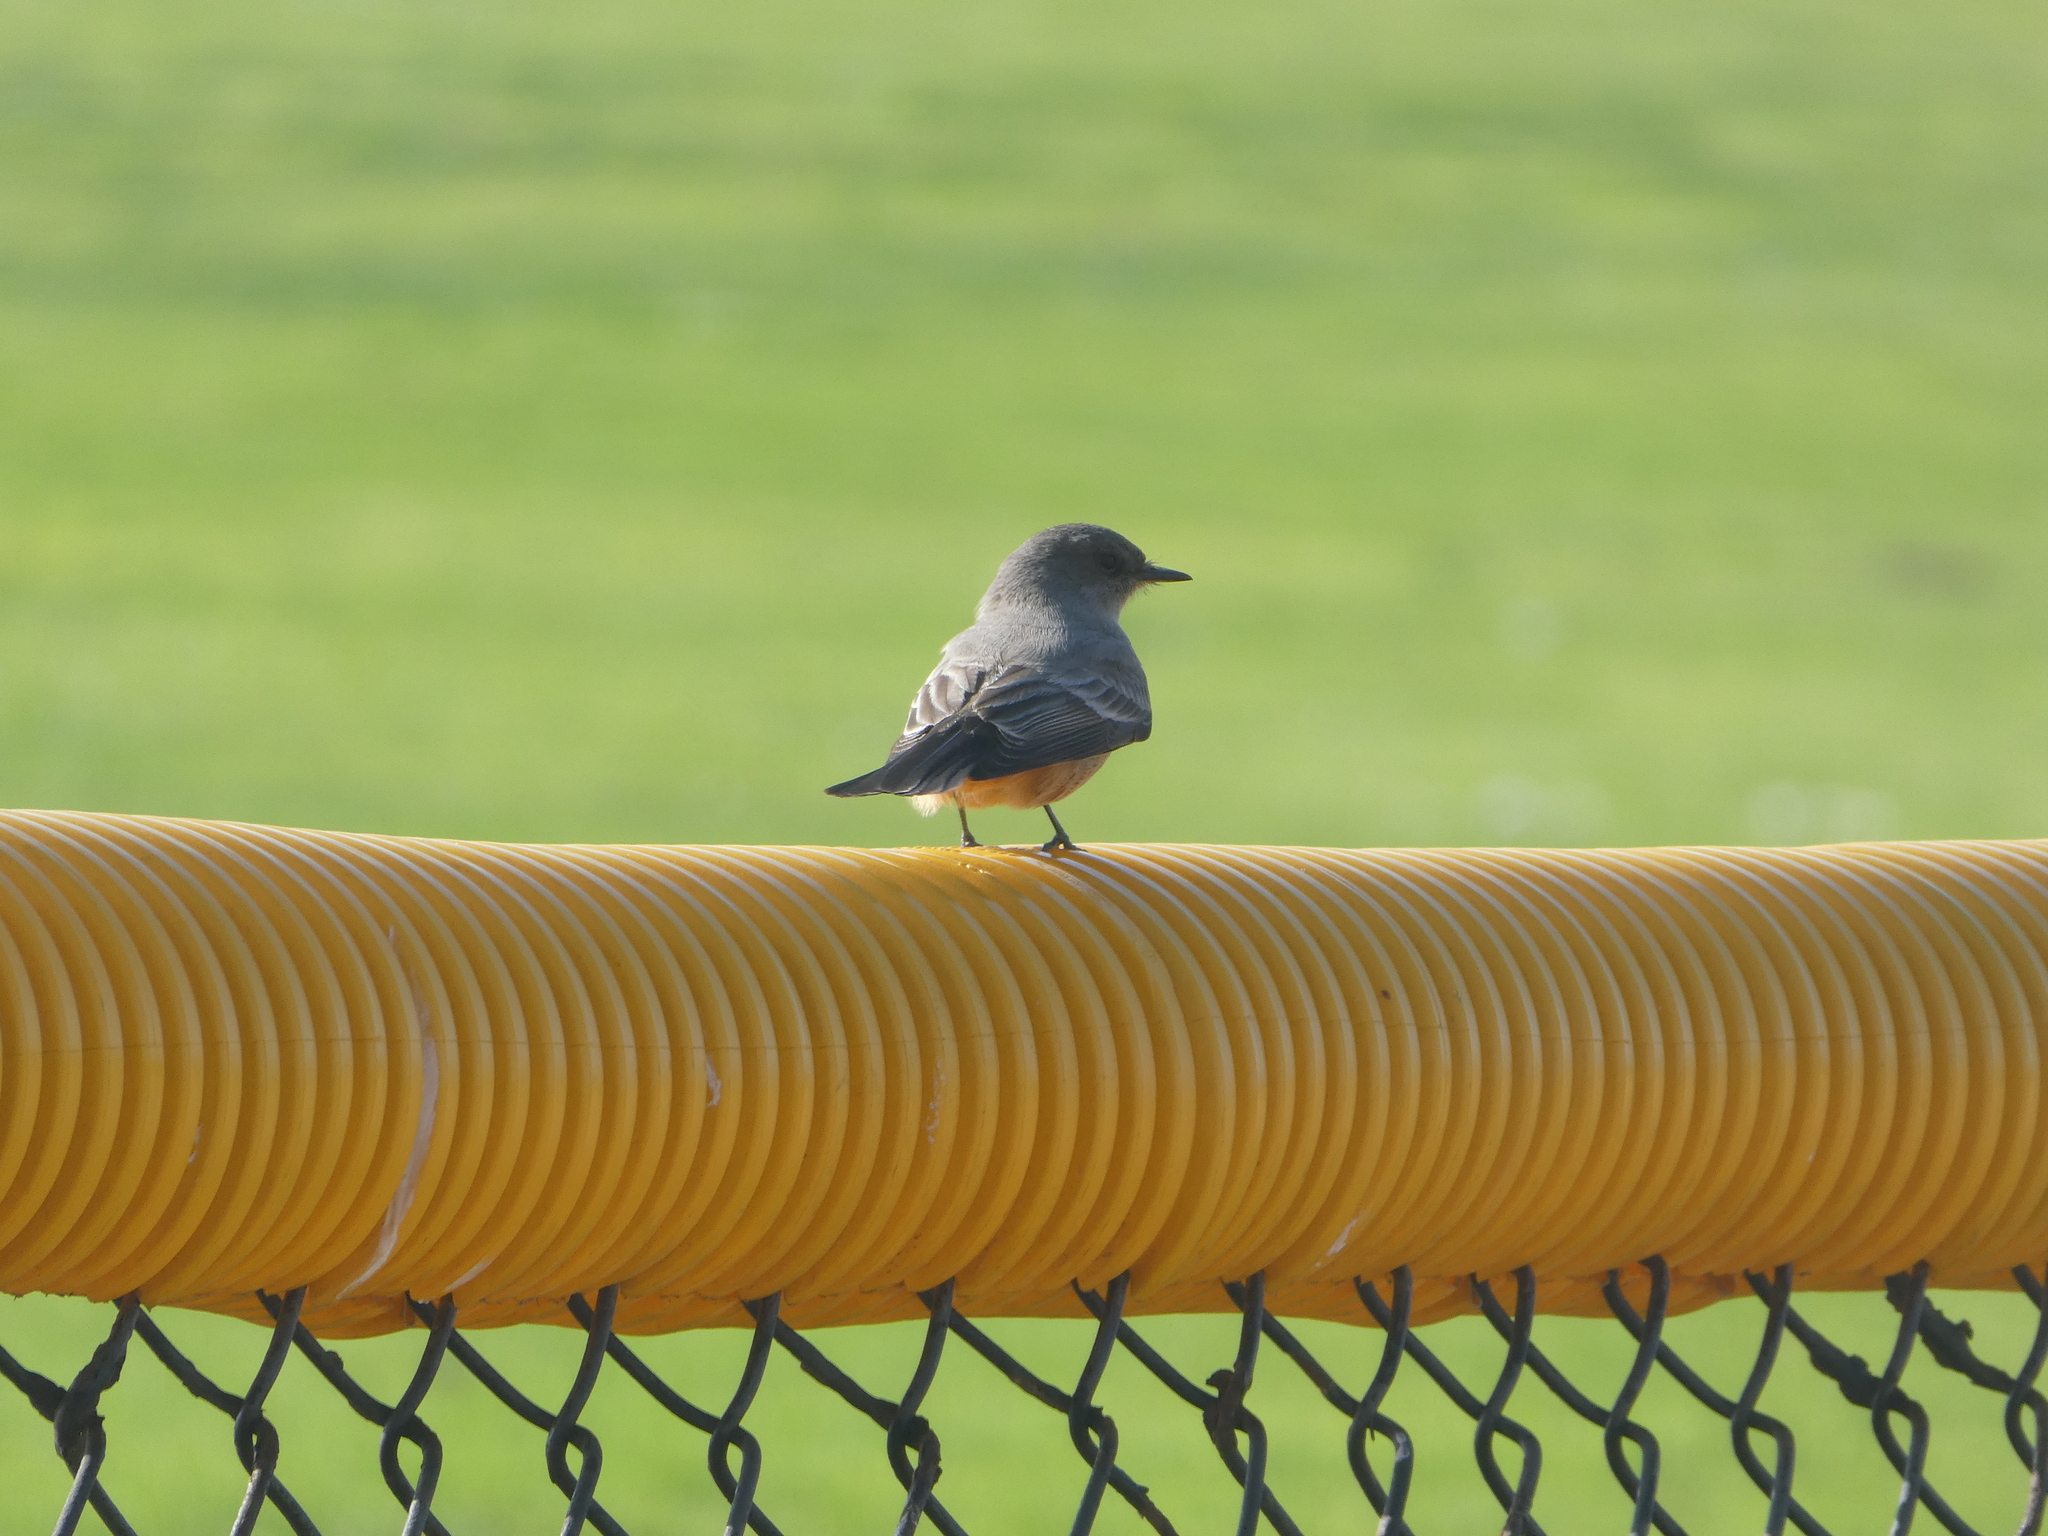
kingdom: Animalia
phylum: Chordata
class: Aves
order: Passeriformes
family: Tyrannidae
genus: Sayornis
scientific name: Sayornis saya
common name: Say's phoebe
